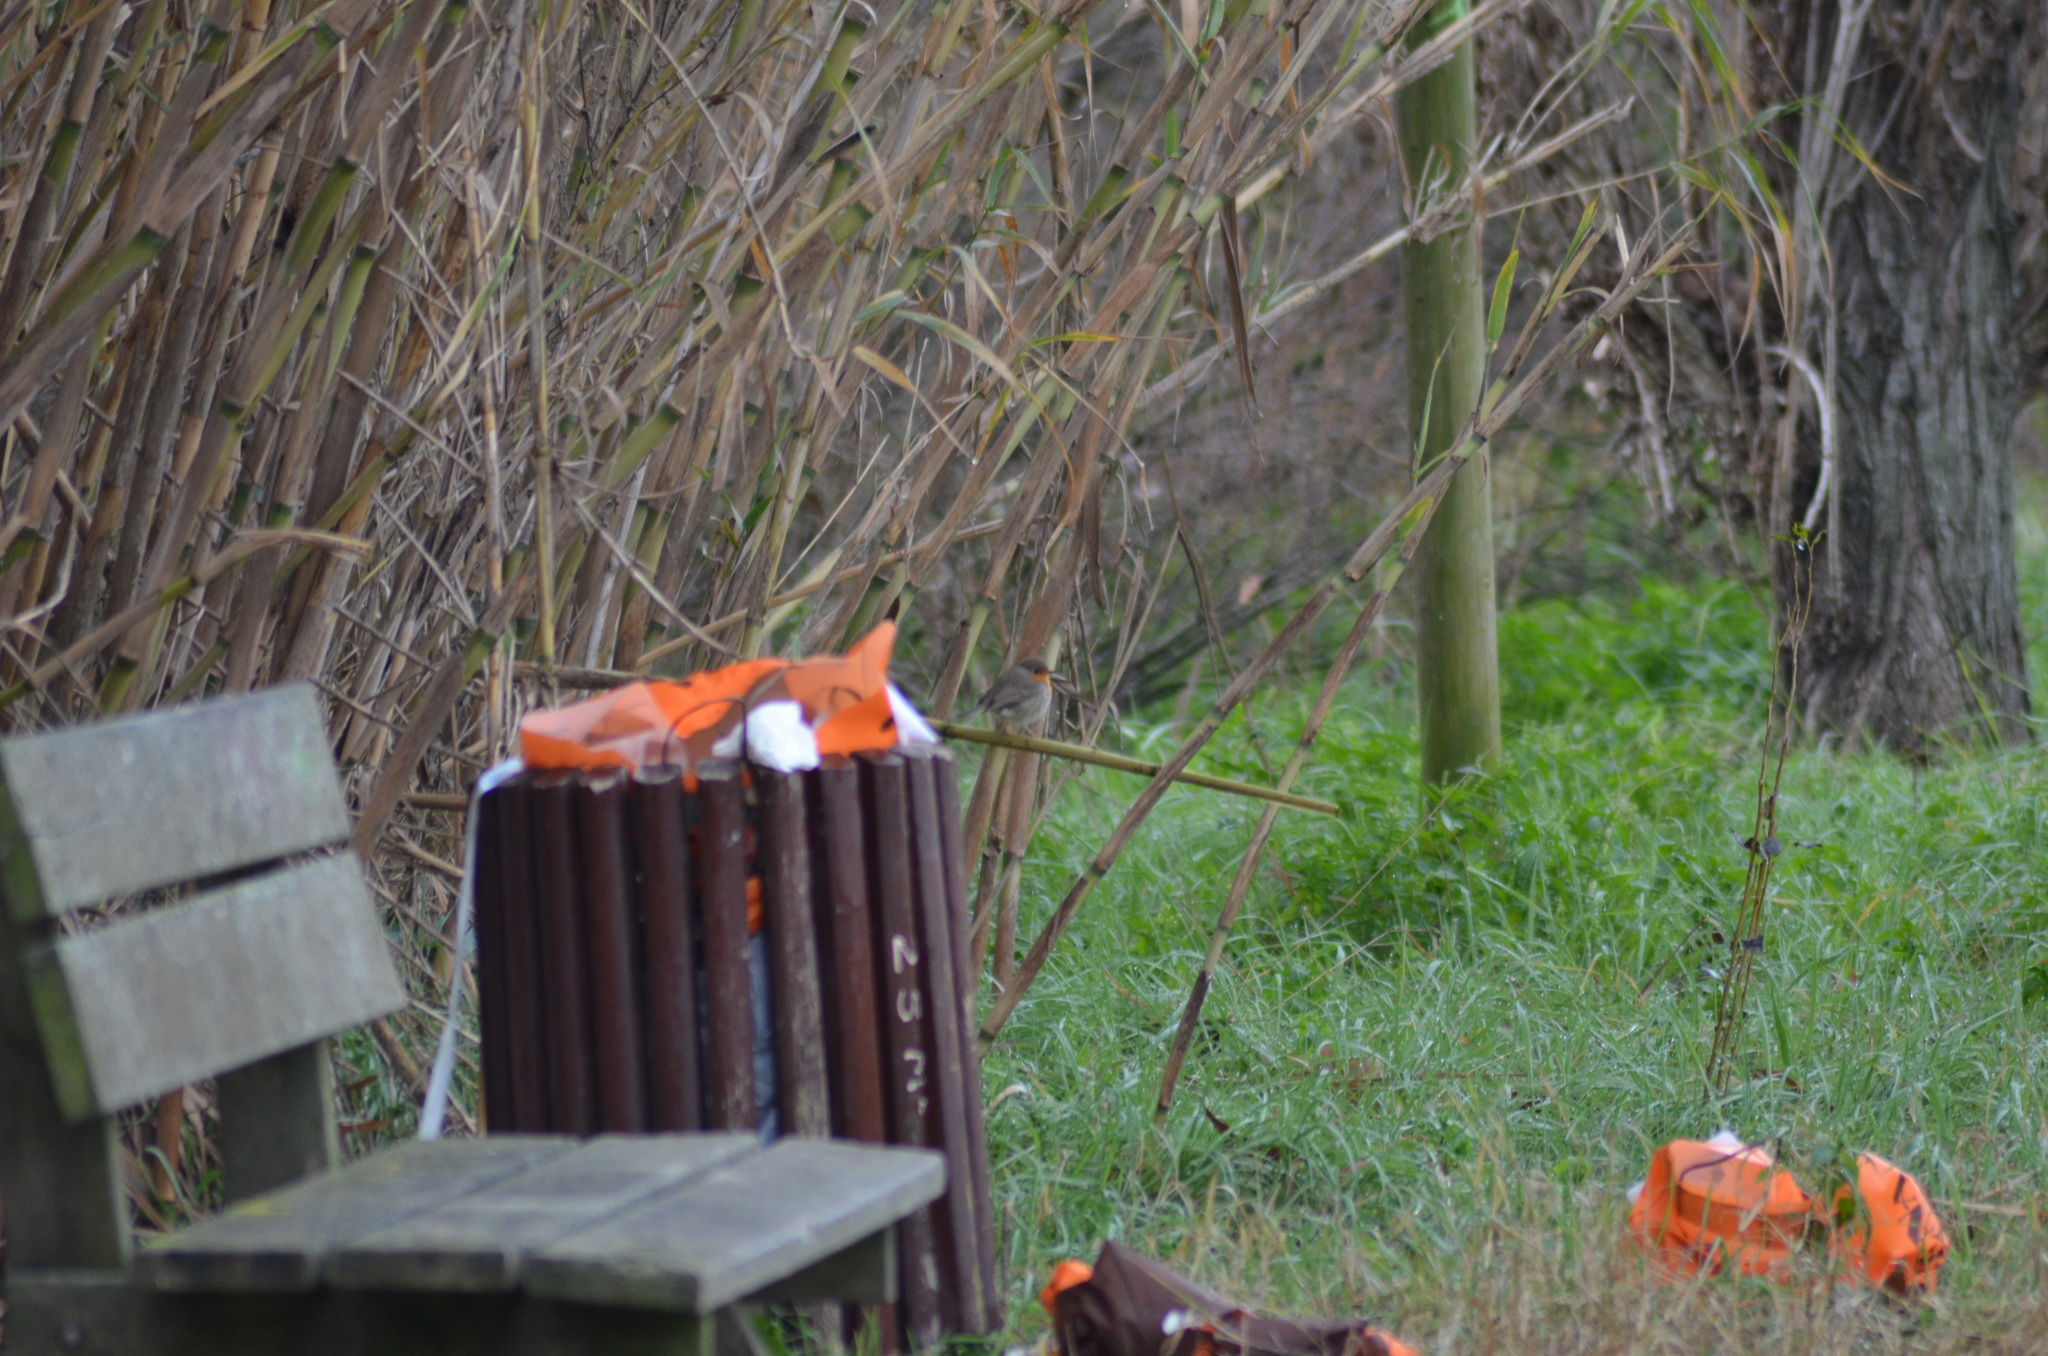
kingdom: Animalia
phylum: Chordata
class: Aves
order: Passeriformes
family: Muscicapidae
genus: Erithacus
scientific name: Erithacus rubecula
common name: European robin
